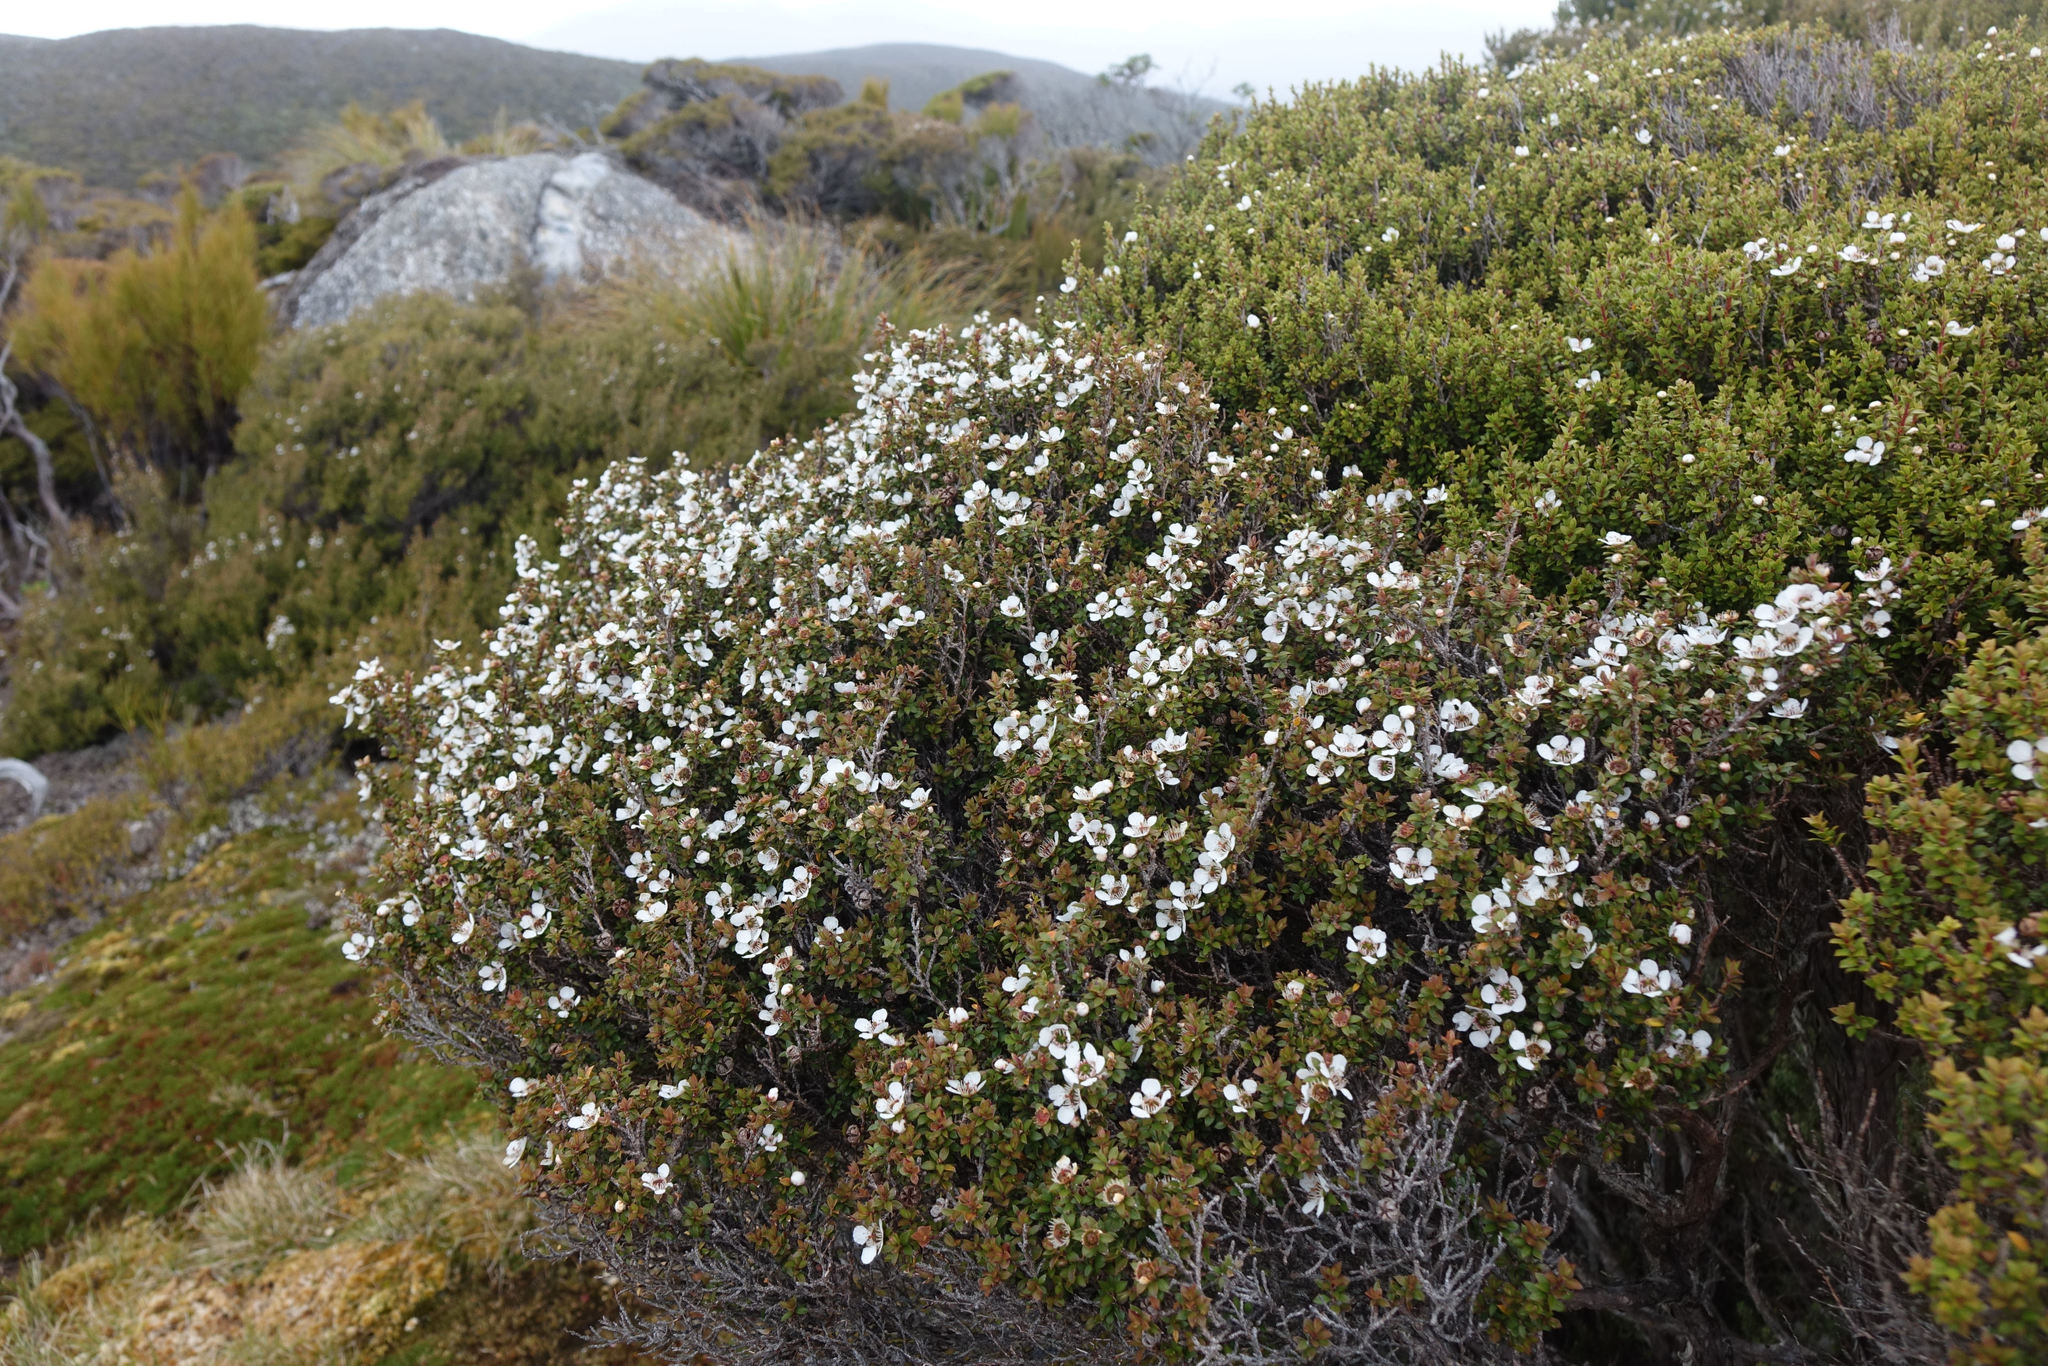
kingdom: Plantae
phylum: Tracheophyta
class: Magnoliopsida
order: Myrtales
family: Myrtaceae
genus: Leptospermum
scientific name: Leptospermum scoparium
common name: Broom tea-tree
